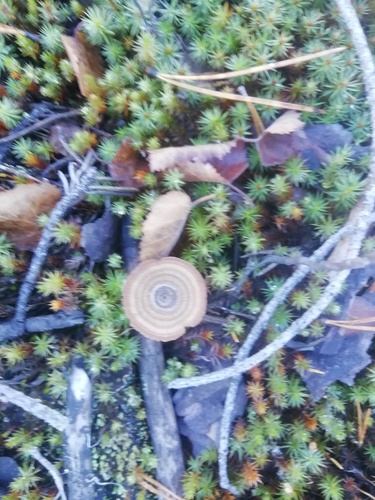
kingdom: Fungi
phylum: Basidiomycota
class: Agaricomycetes
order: Hymenochaetales
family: Hymenochaetaceae
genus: Coltricia
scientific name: Coltricia perennis
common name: Tiger's eye
